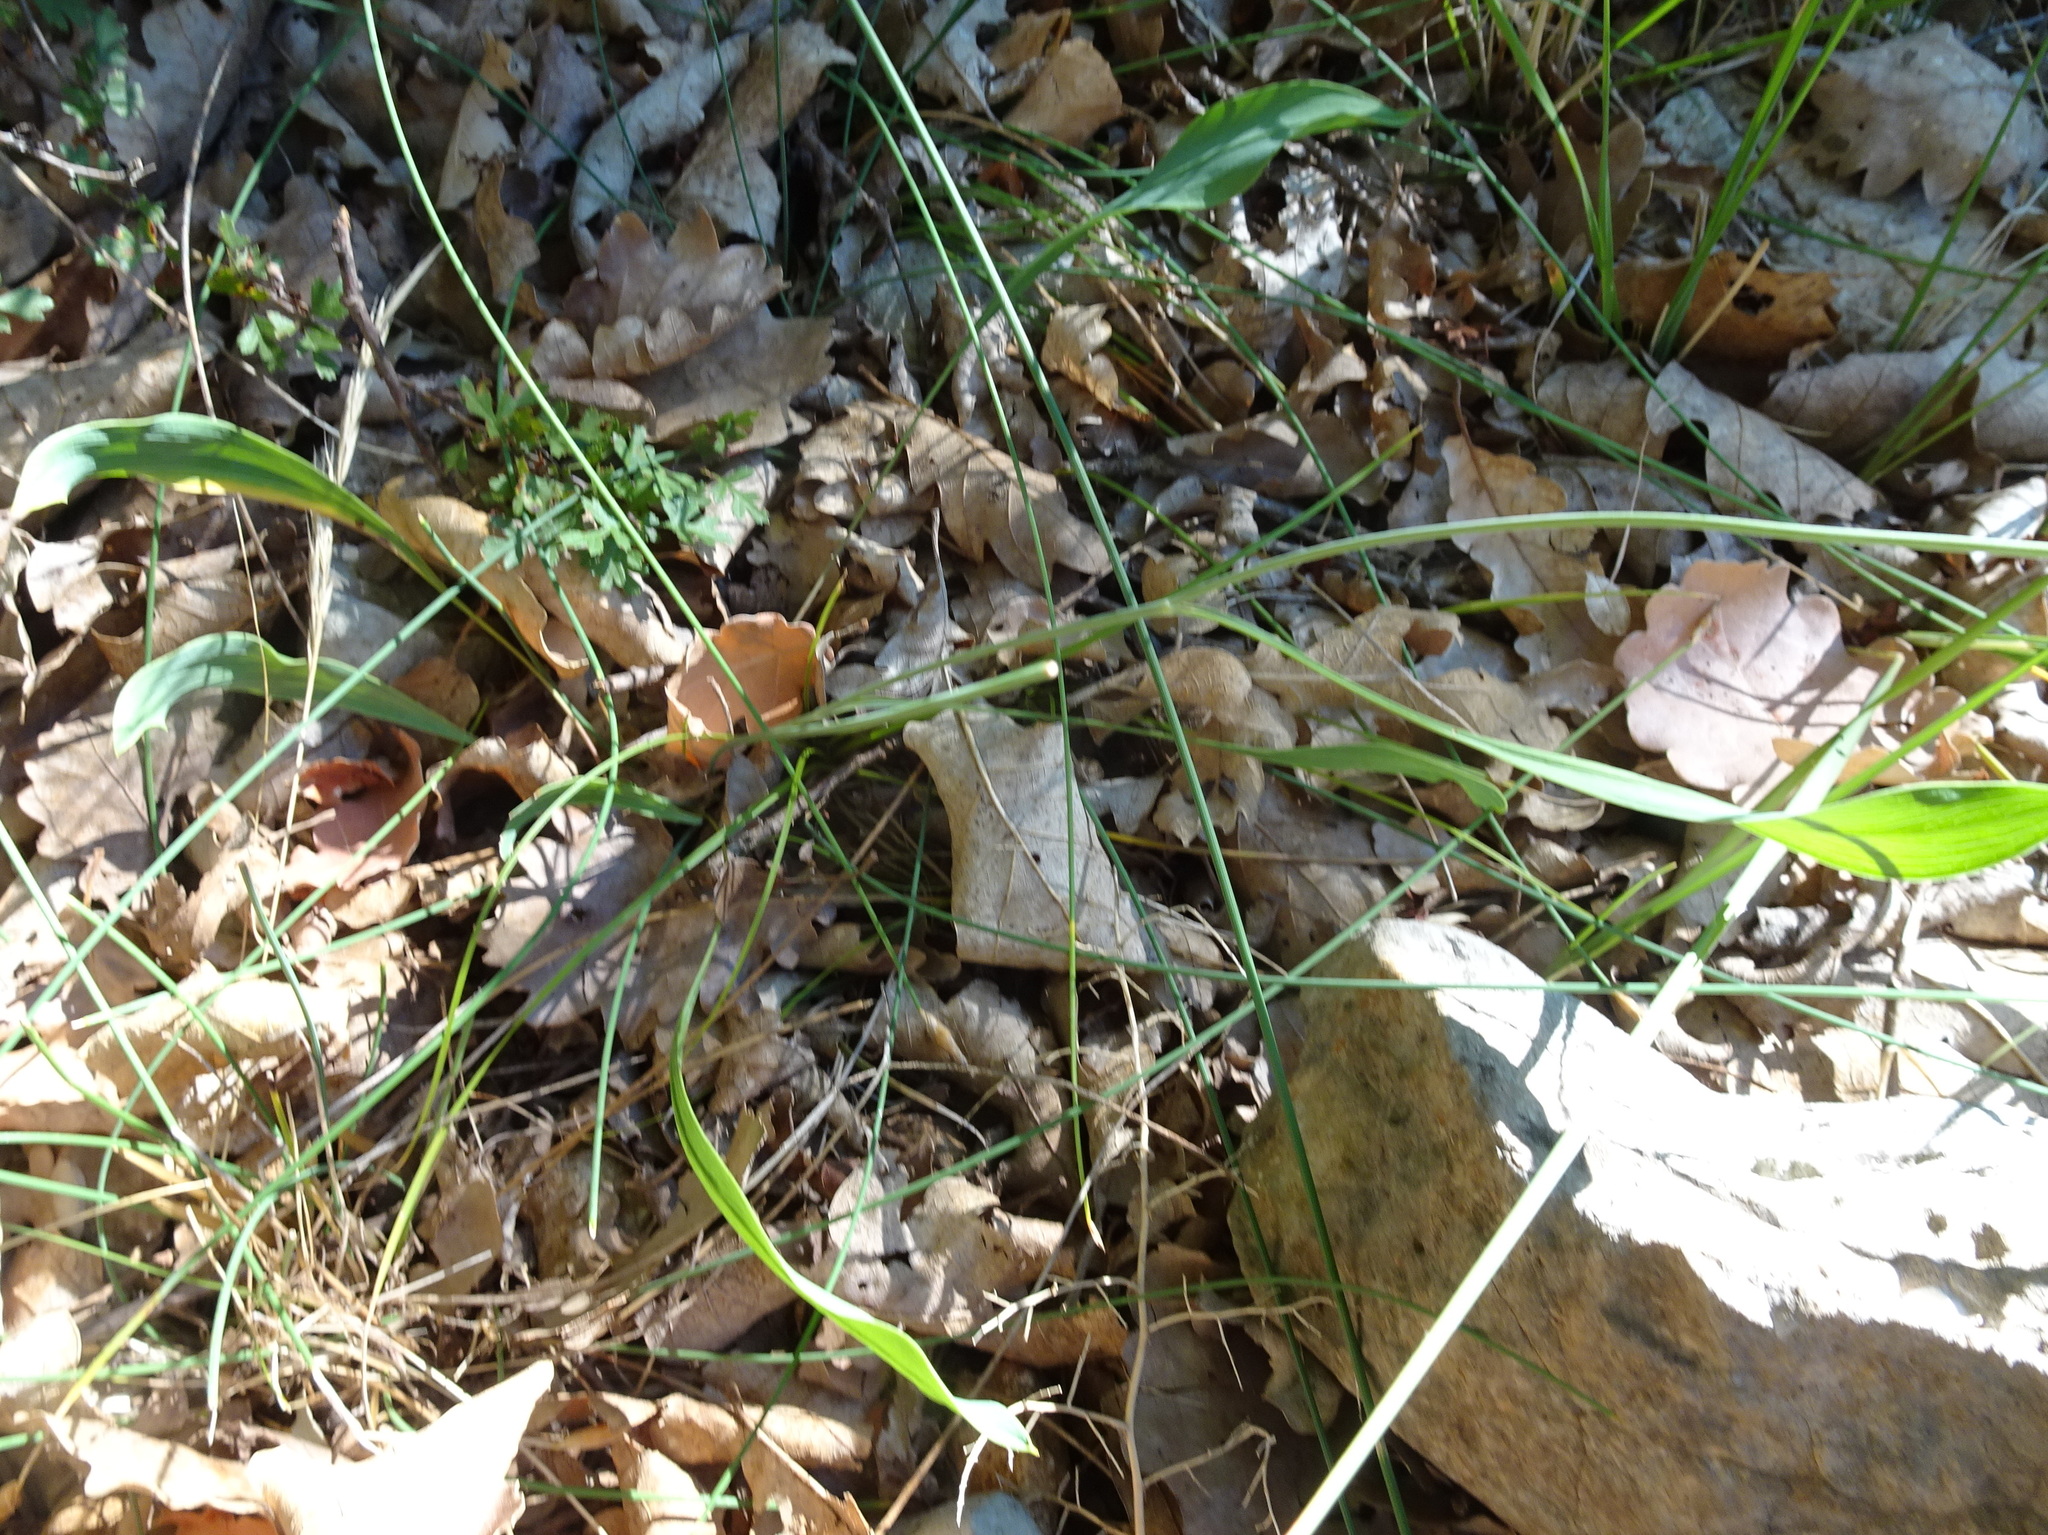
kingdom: Plantae
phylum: Tracheophyta
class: Magnoliopsida
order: Apiales
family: Apiaceae
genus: Bupleurum
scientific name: Bupleurum rigidum
